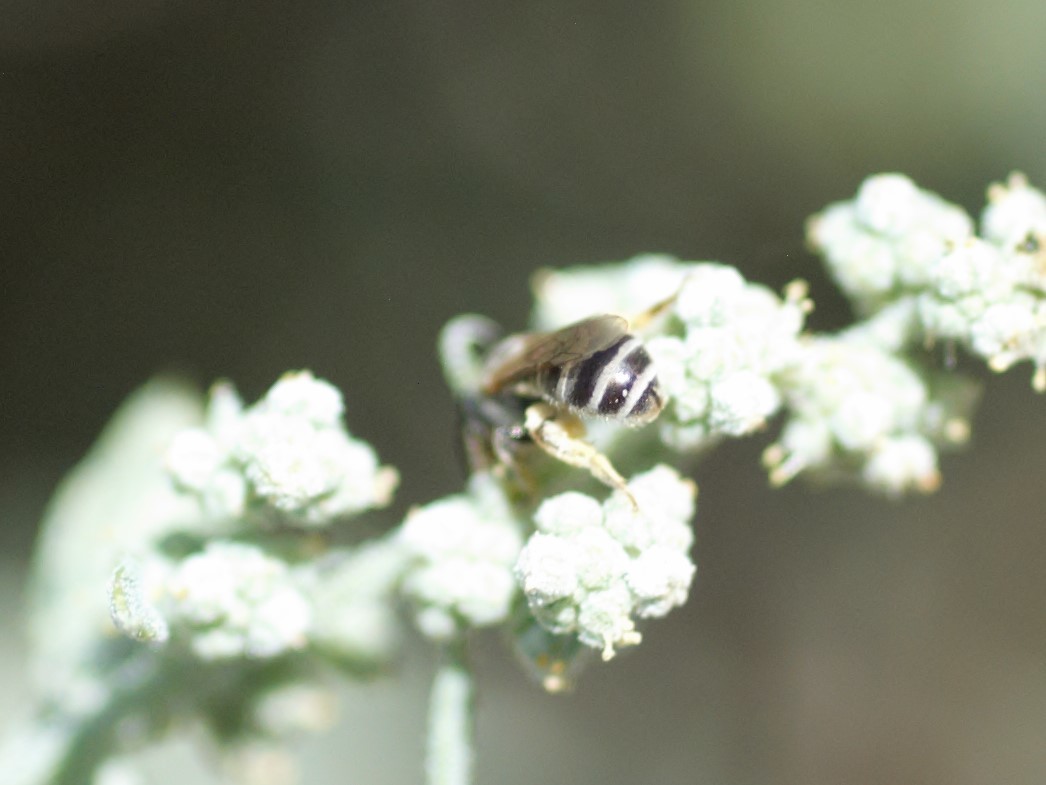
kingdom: Animalia
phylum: Arthropoda
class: Insecta
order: Hymenoptera
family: Halictidae
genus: Halictus
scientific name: Halictus tripartitus
